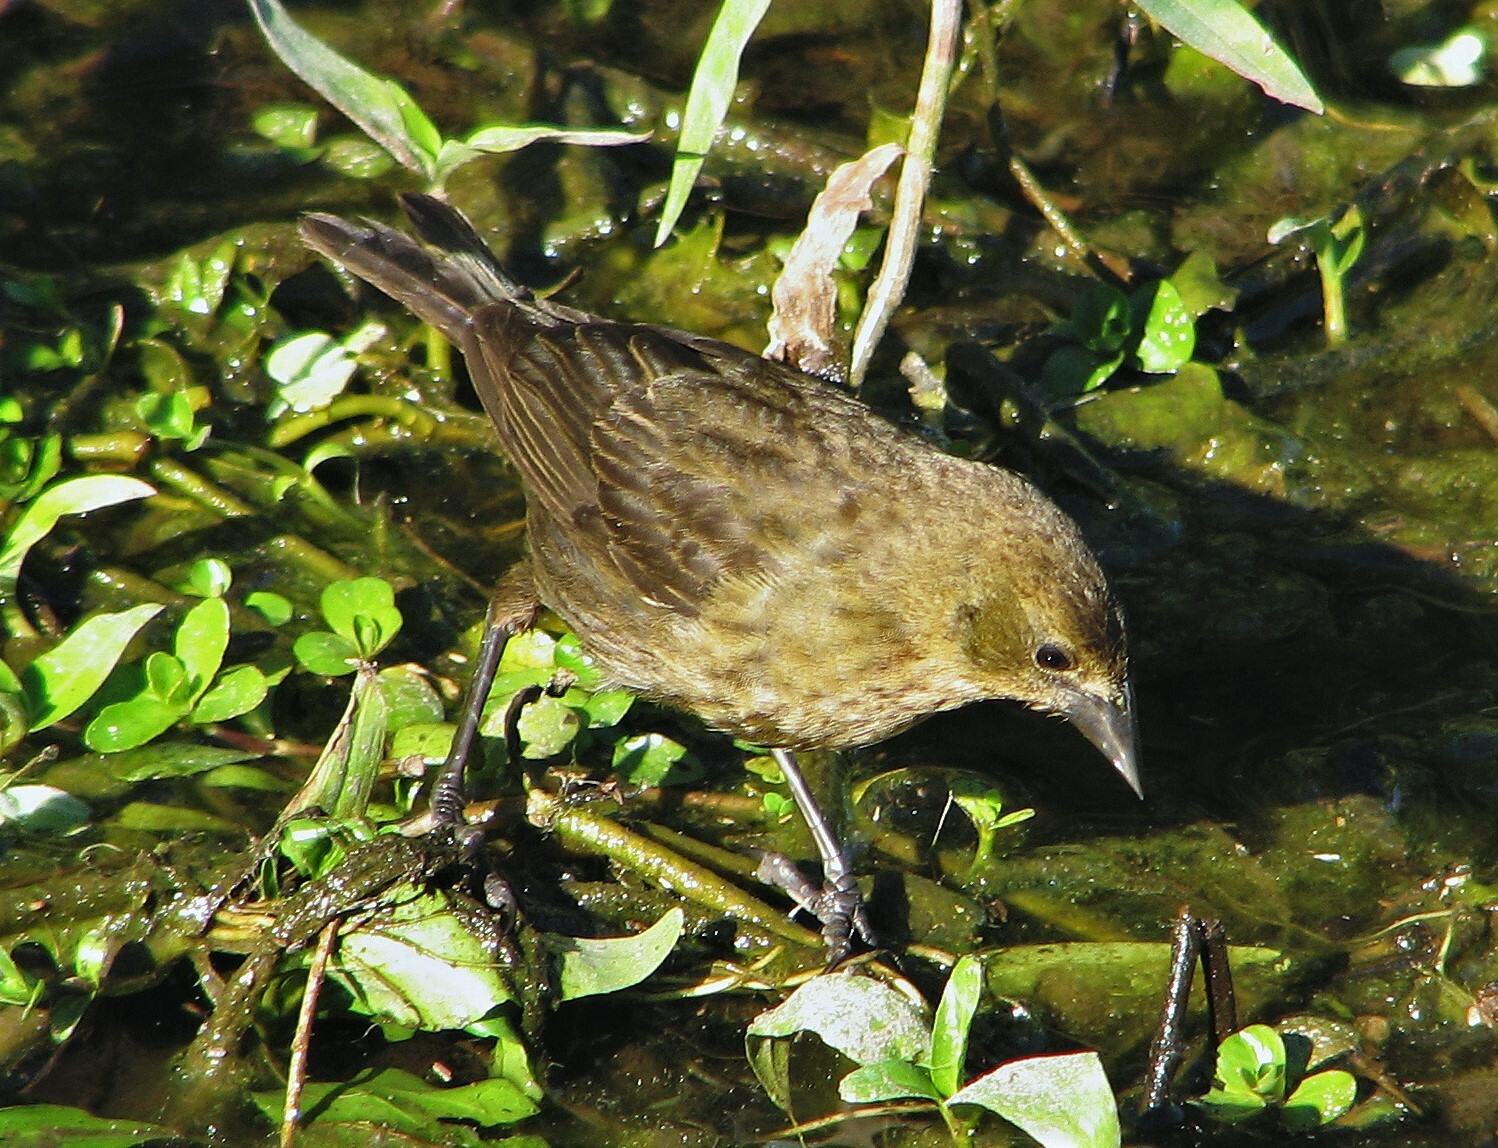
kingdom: Animalia
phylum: Chordata
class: Aves
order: Passeriformes
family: Icteridae
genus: Chrysomus
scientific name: Chrysomus ruficapillus
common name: Chestnut-capped blackbird
